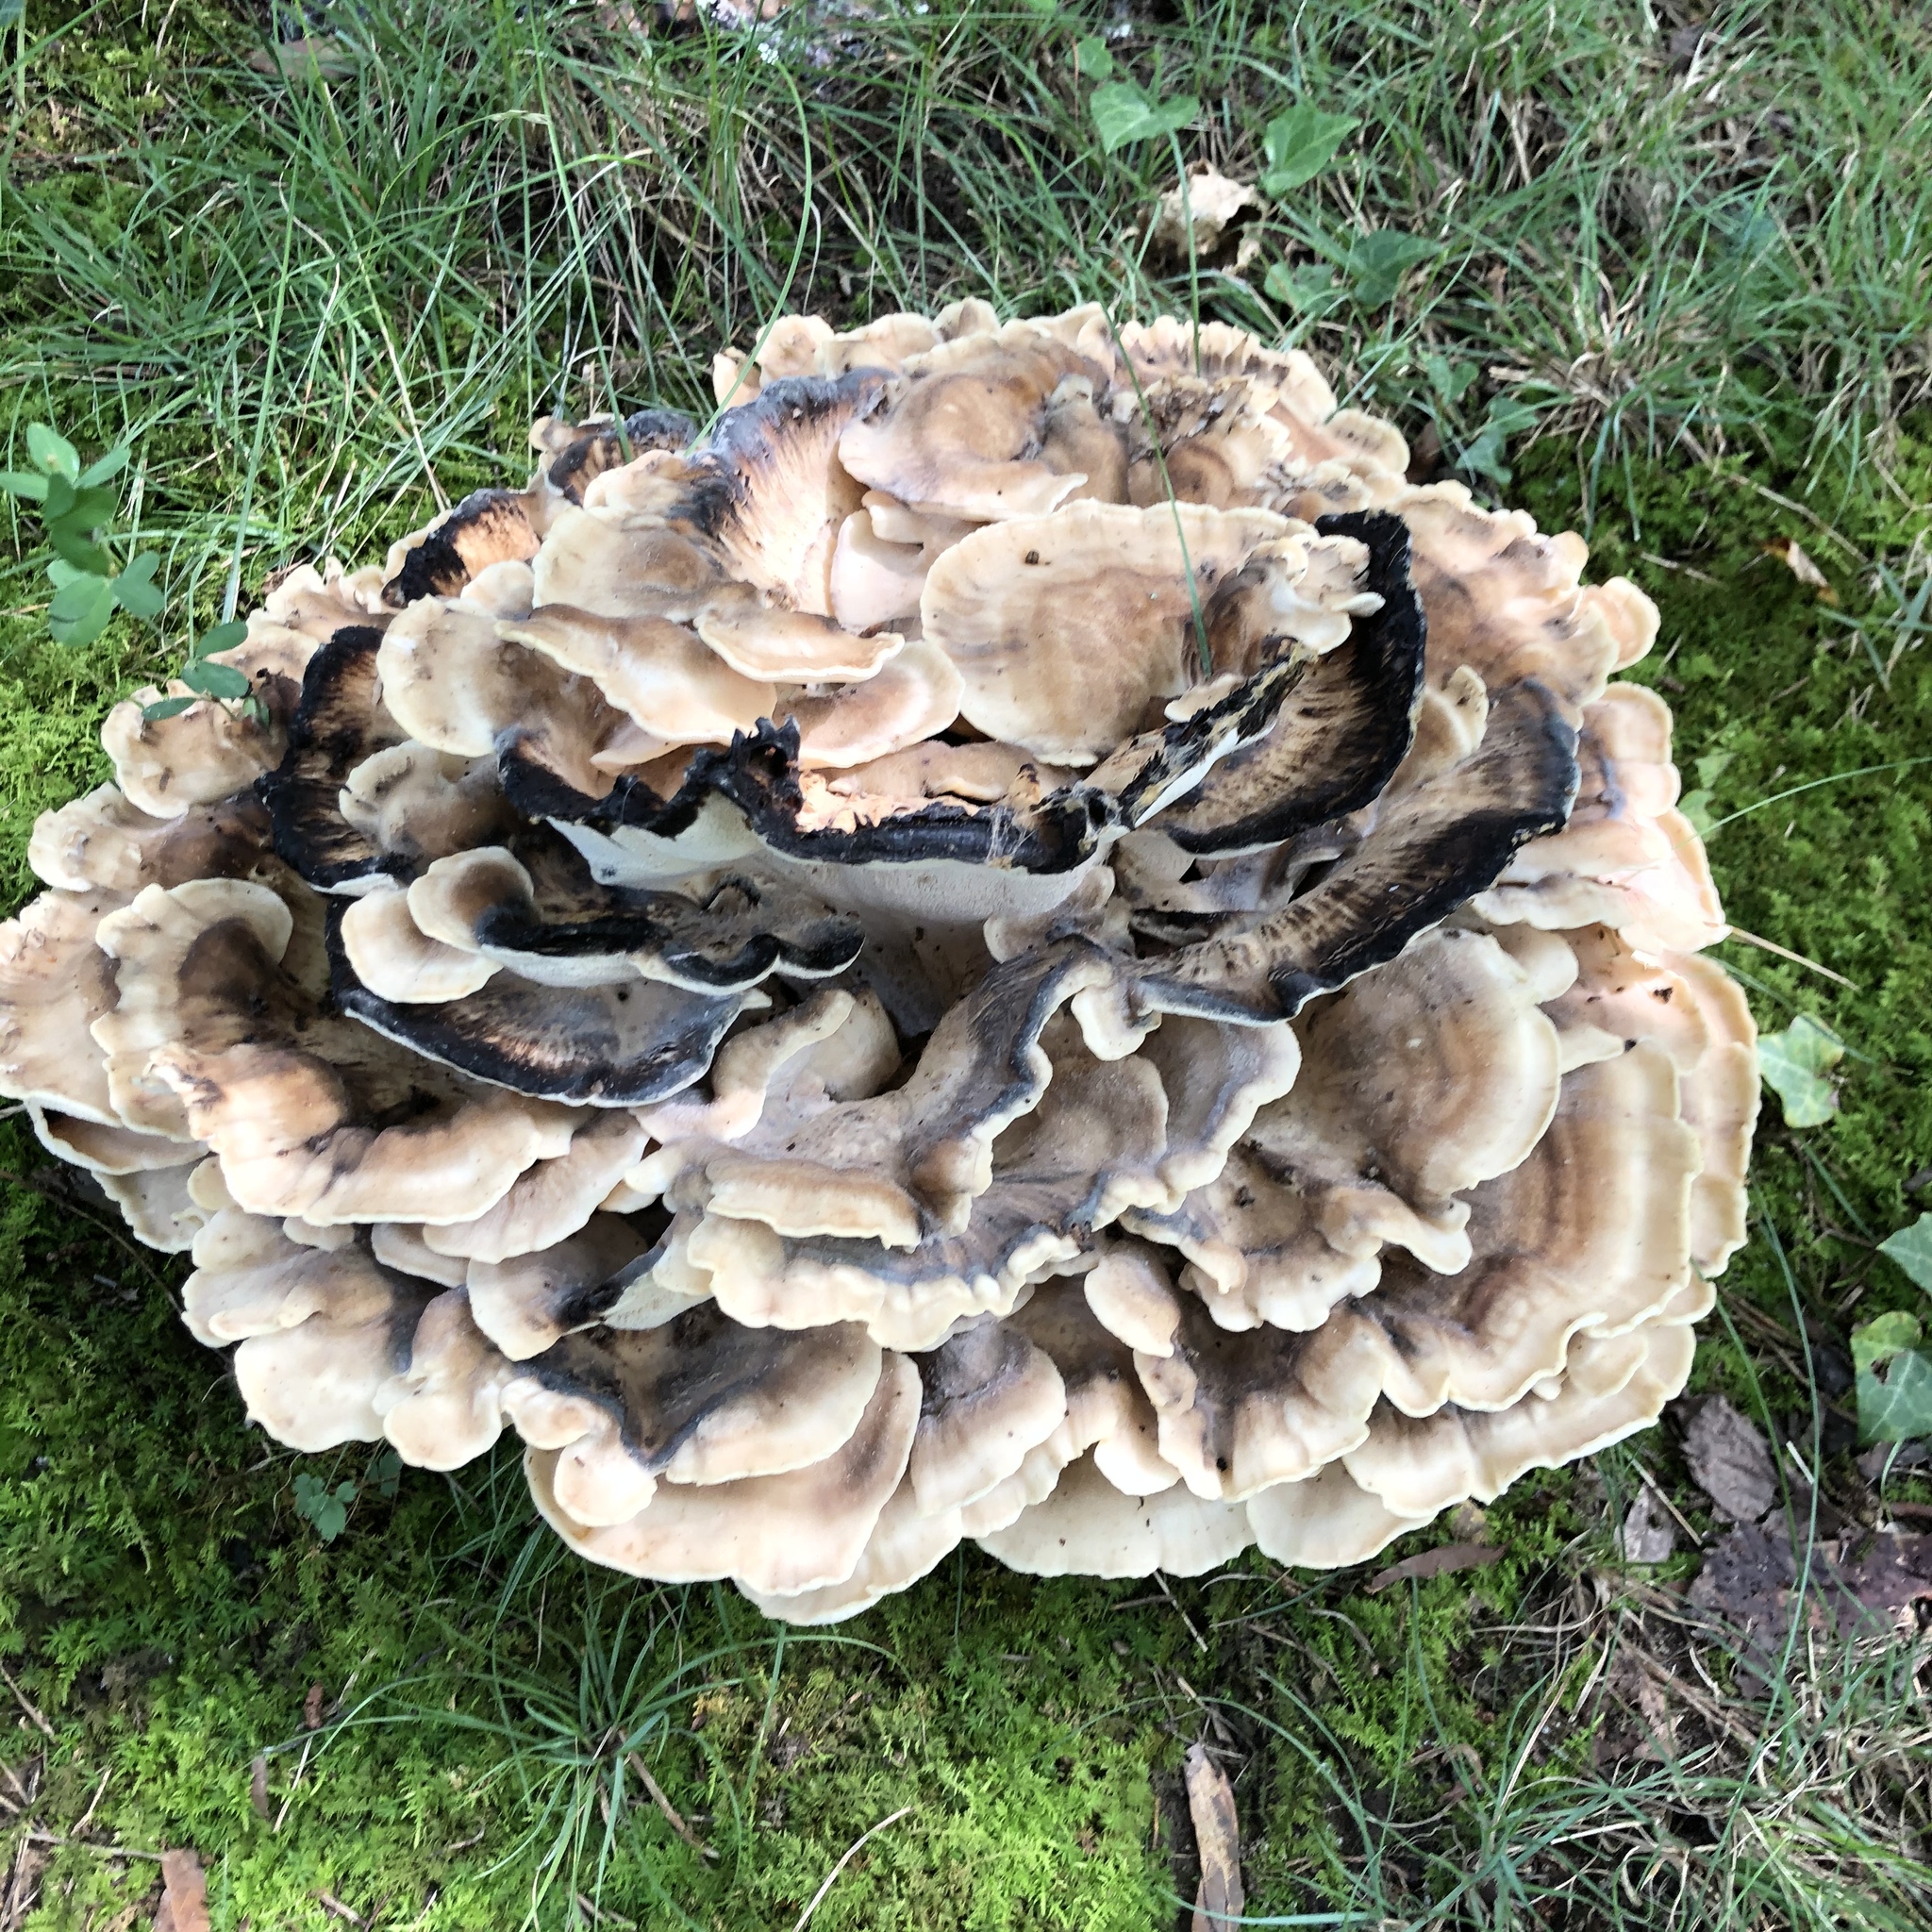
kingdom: Fungi
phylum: Basidiomycota
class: Agaricomycetes
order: Polyporales
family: Meripilaceae
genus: Meripilus
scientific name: Meripilus sumstinei
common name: Black-staining polypore
